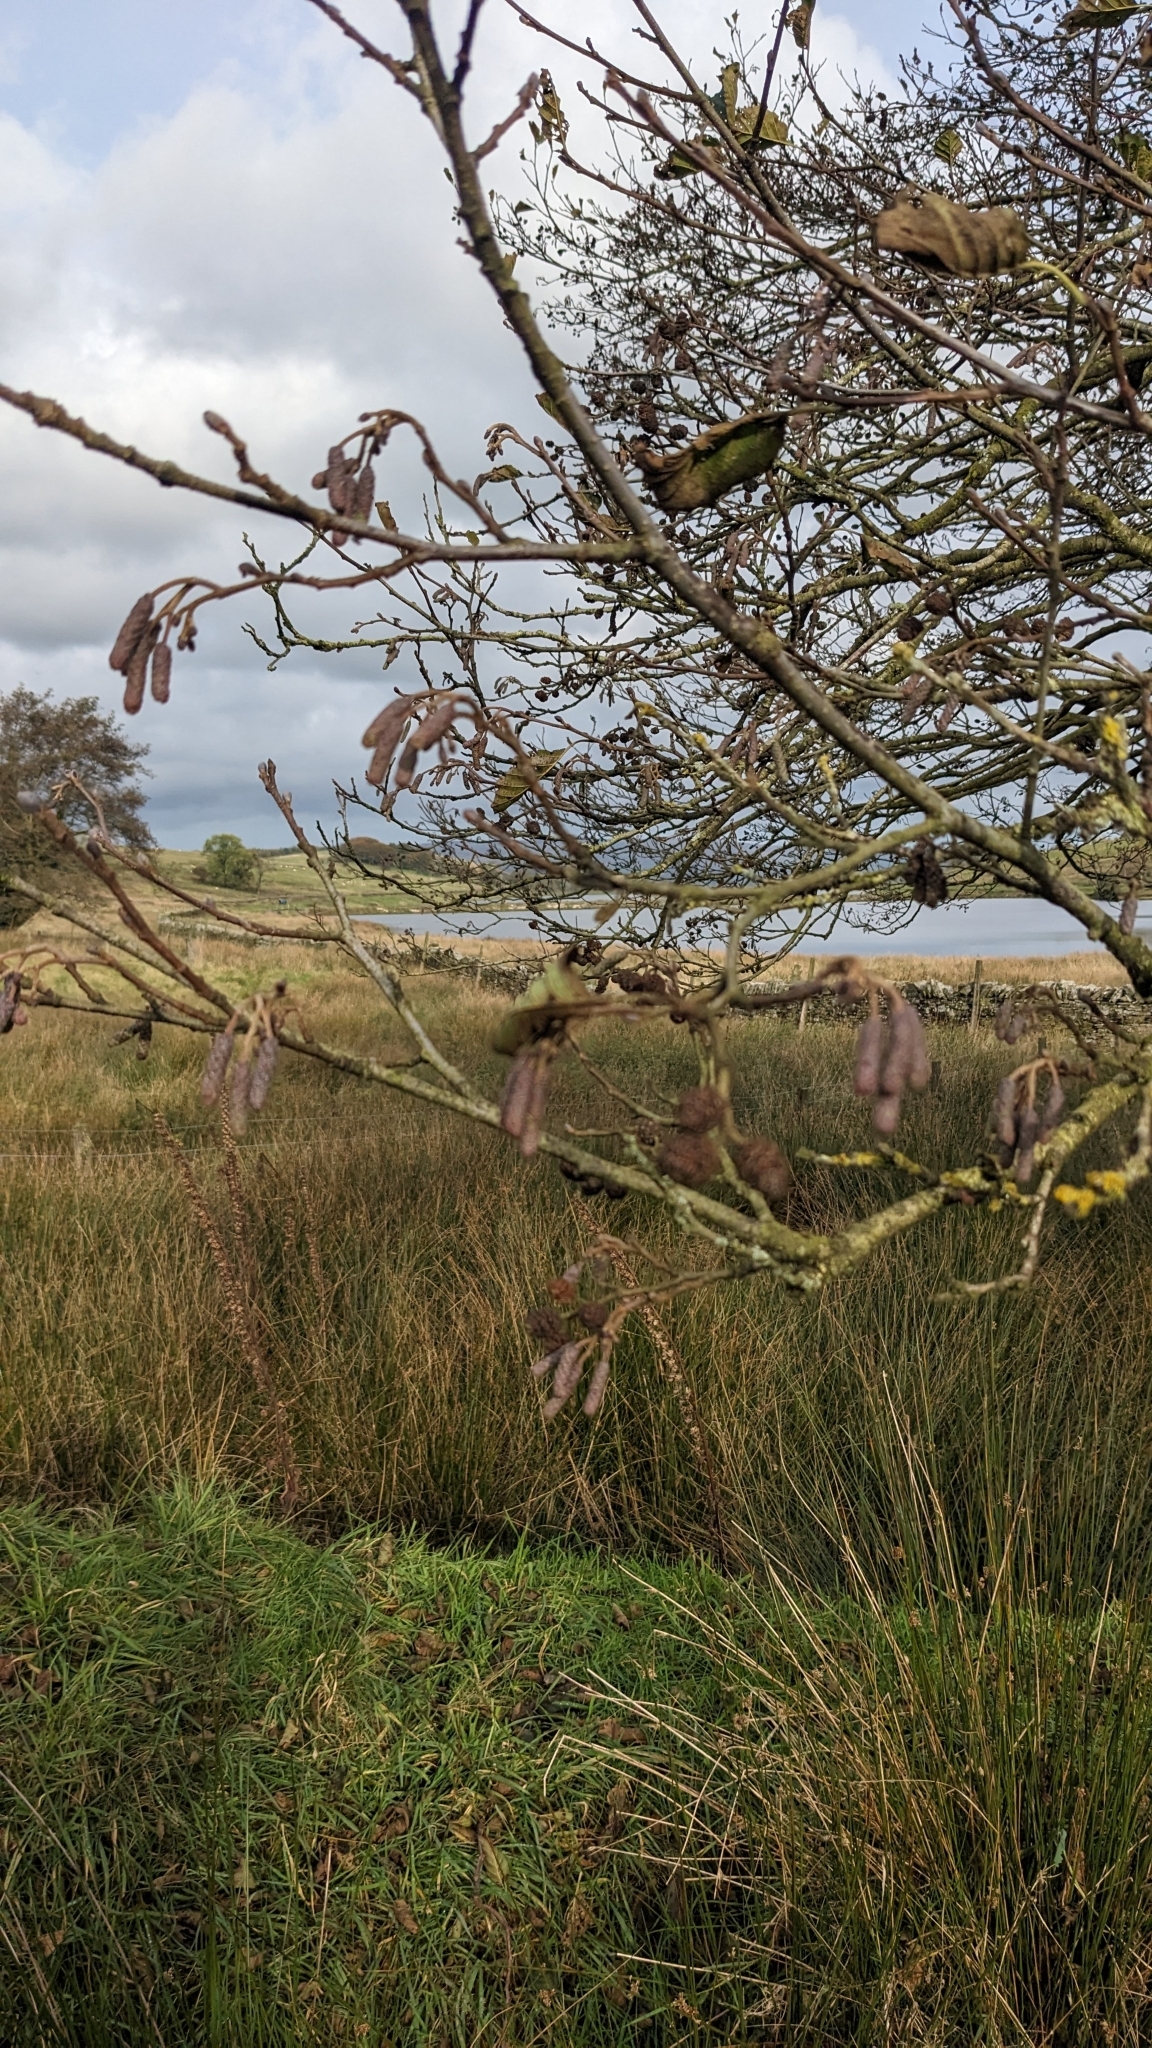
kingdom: Plantae
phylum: Tracheophyta
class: Magnoliopsida
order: Fagales
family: Betulaceae
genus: Alnus
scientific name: Alnus glutinosa
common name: Black alder
